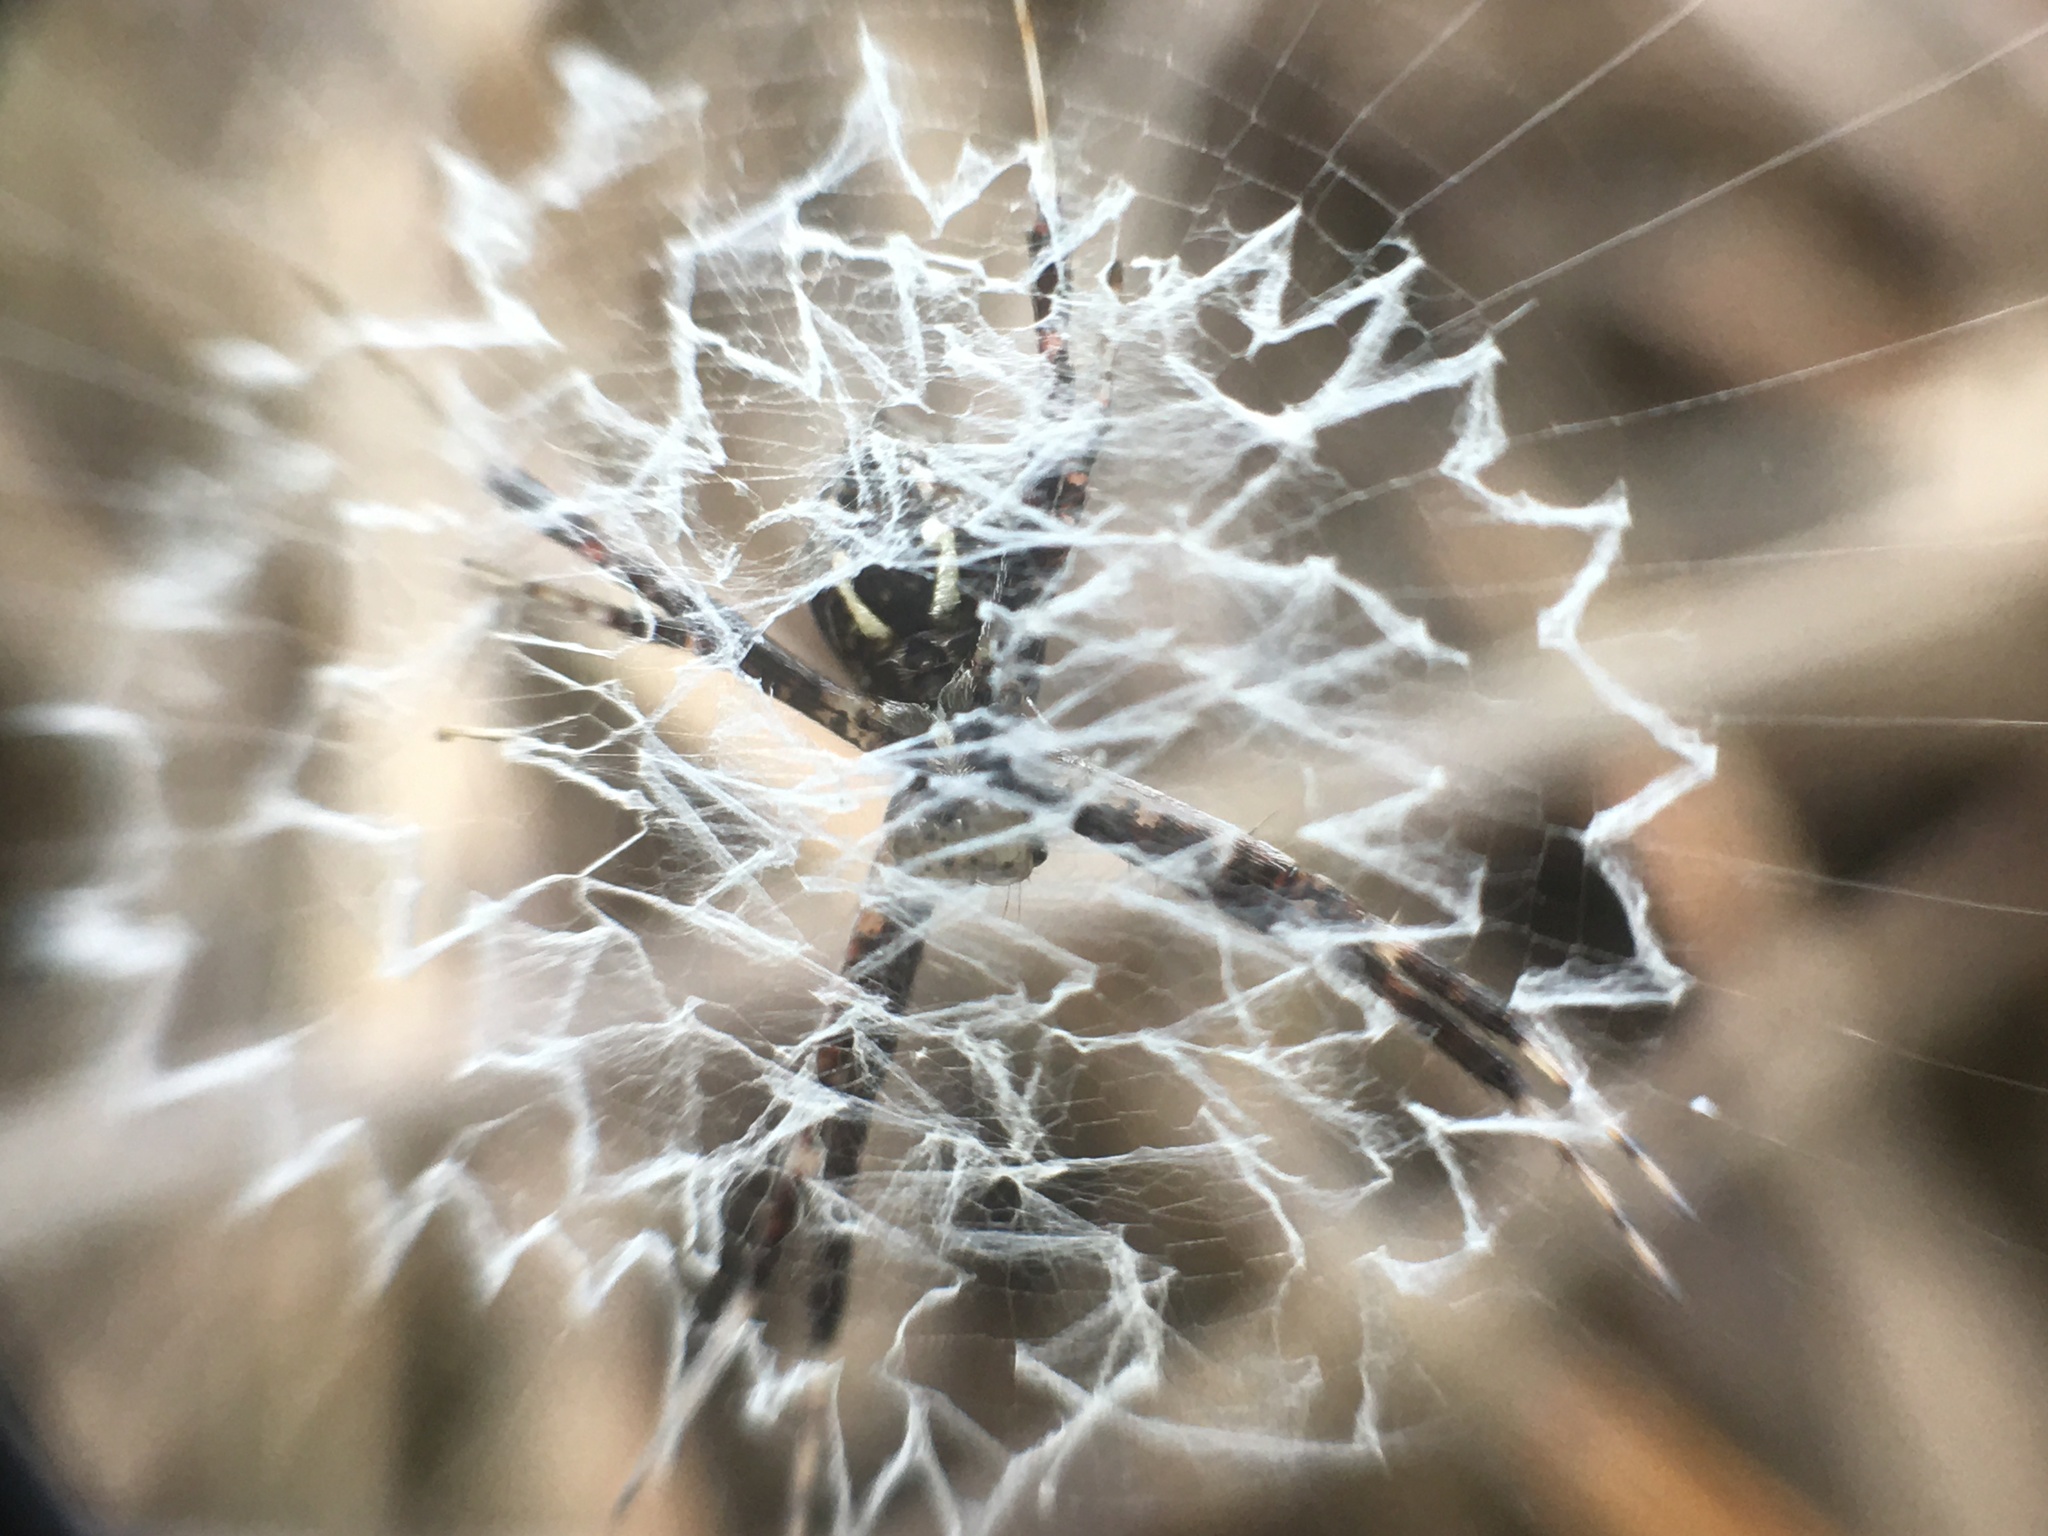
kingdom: Animalia
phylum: Arthropoda
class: Arachnida
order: Araneae
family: Araneidae
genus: Argiope
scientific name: Argiope argentata
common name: Orb weavers
